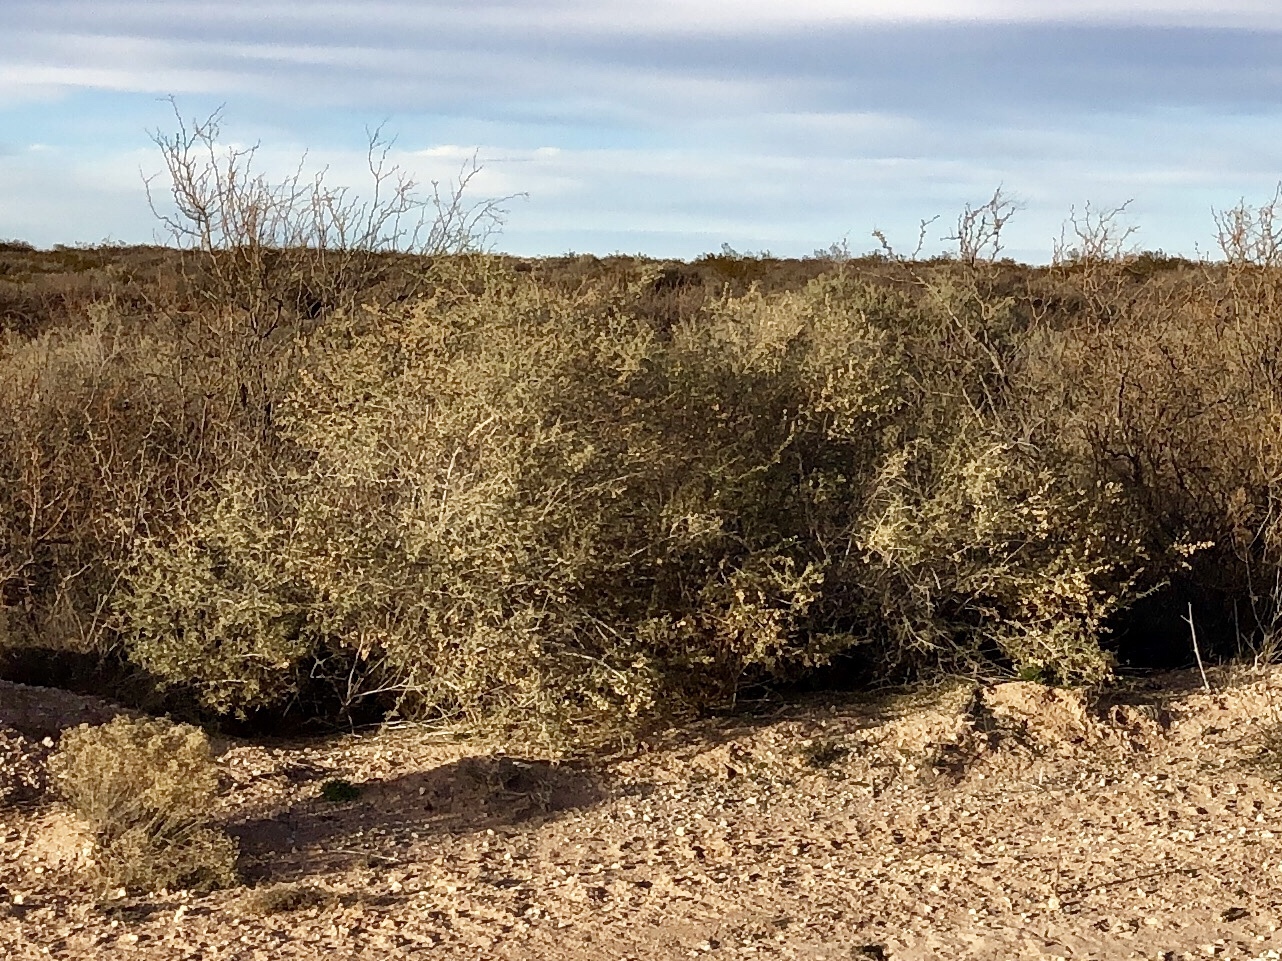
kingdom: Plantae
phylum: Tracheophyta
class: Magnoliopsida
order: Caryophyllales
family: Amaranthaceae
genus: Atriplex
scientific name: Atriplex canescens
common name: Four-wing saltbush
